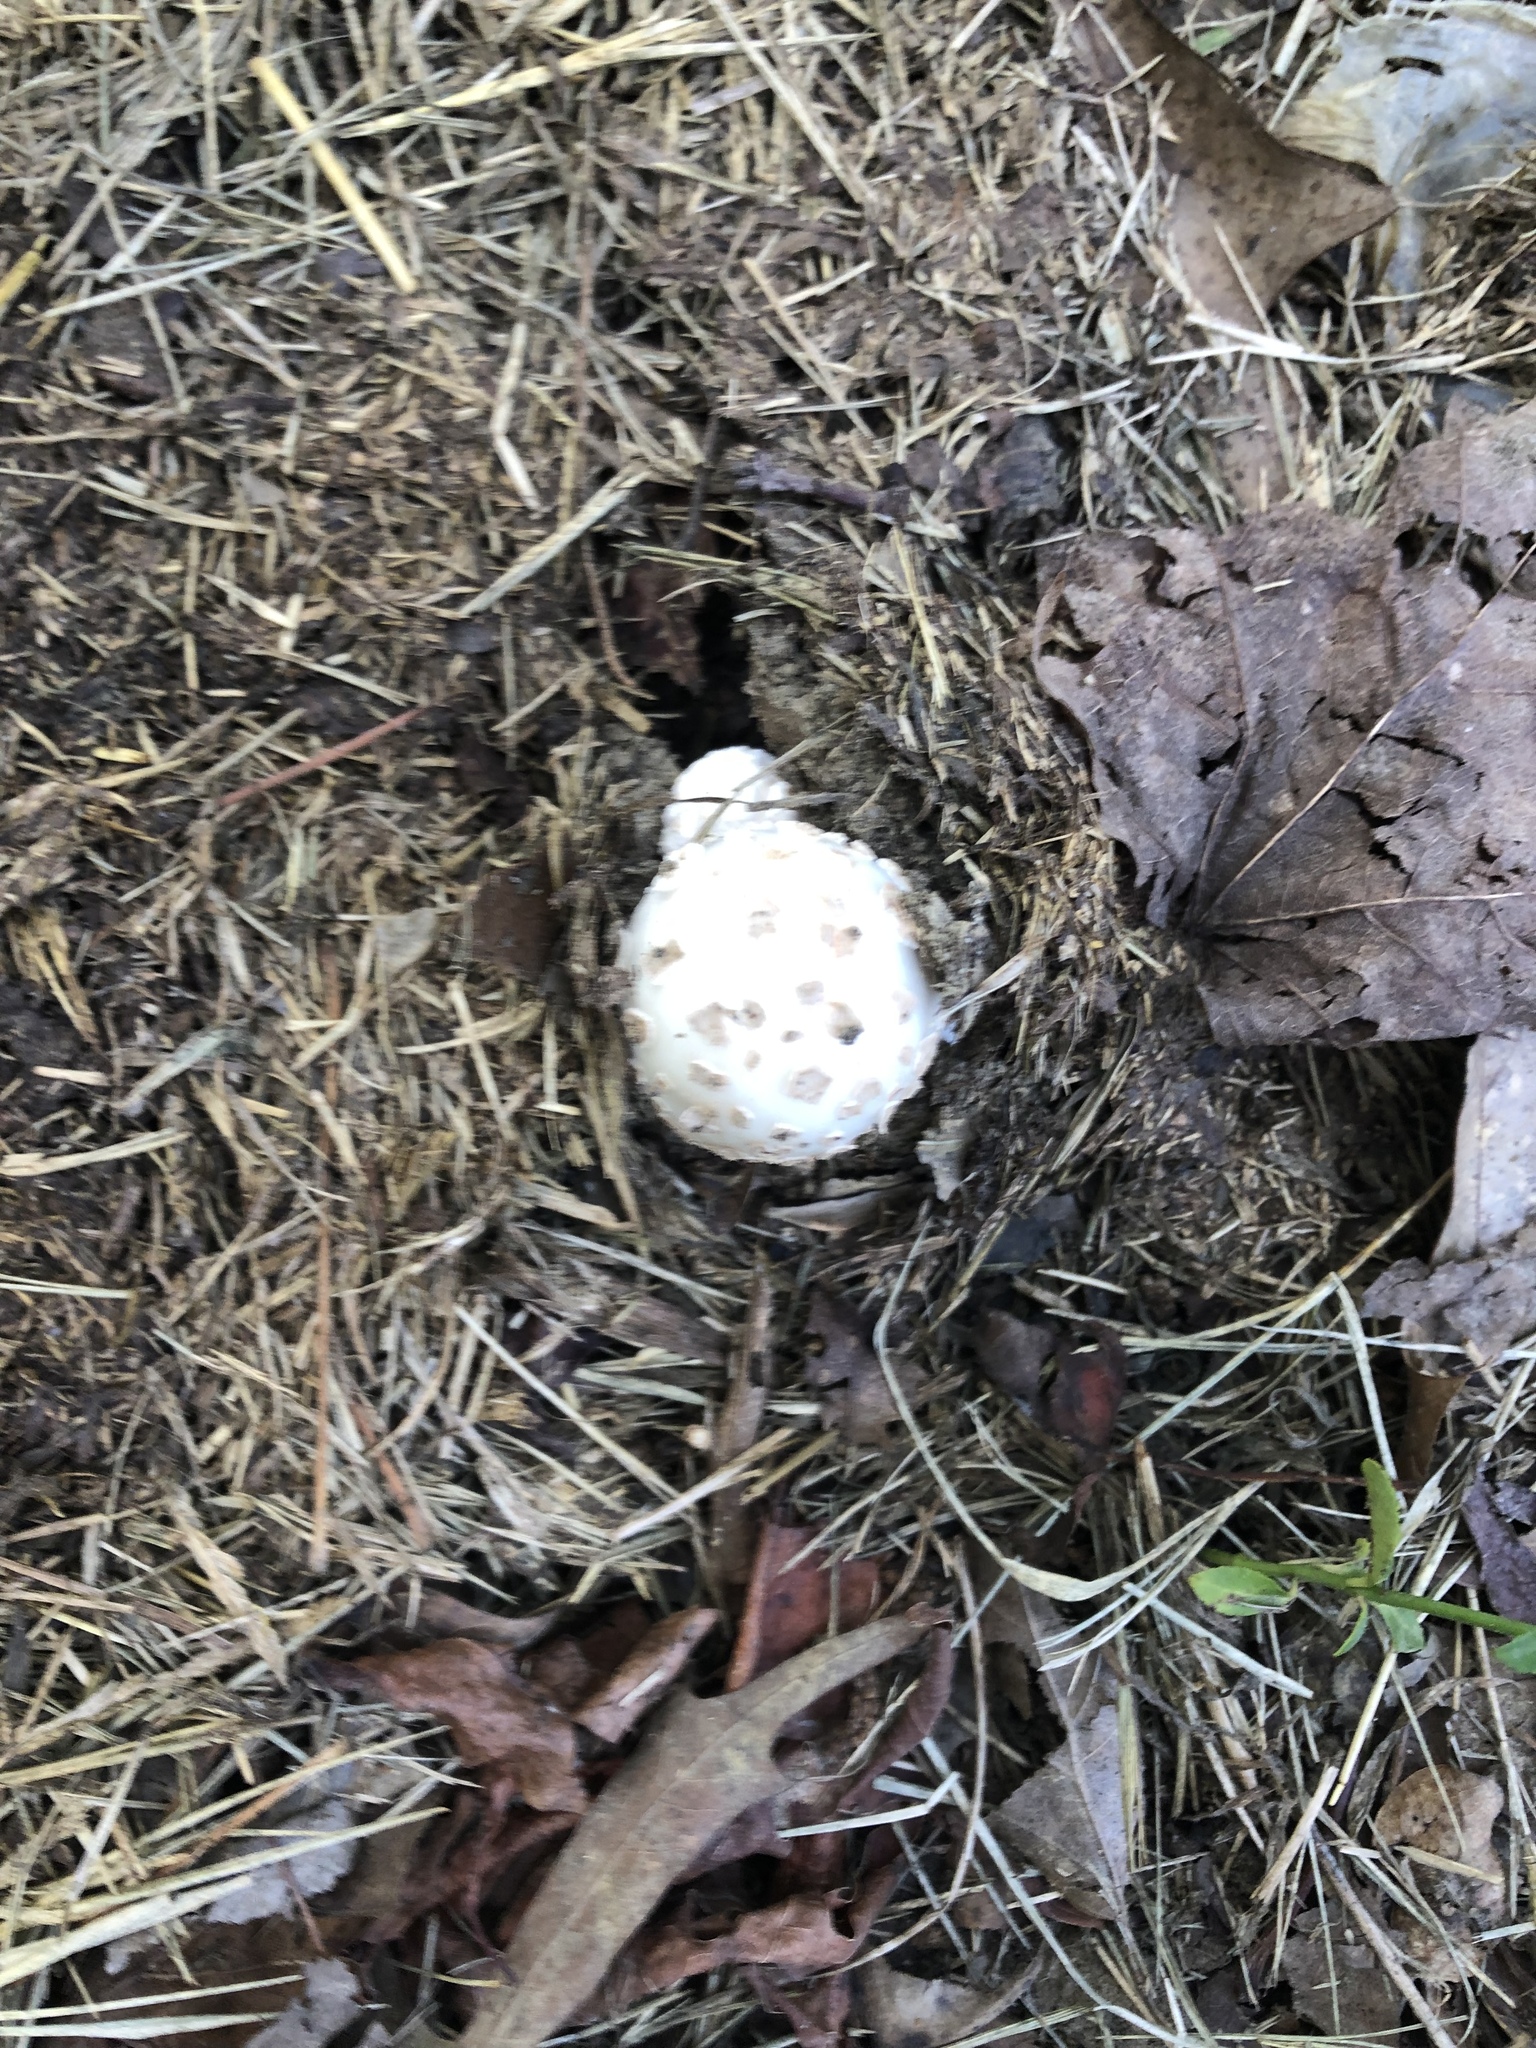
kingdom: Fungi
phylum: Basidiomycota
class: Agaricomycetes
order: Agaricales
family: Amanitaceae
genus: Amanita
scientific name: Amanita canescens
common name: Golden threads lepidella
